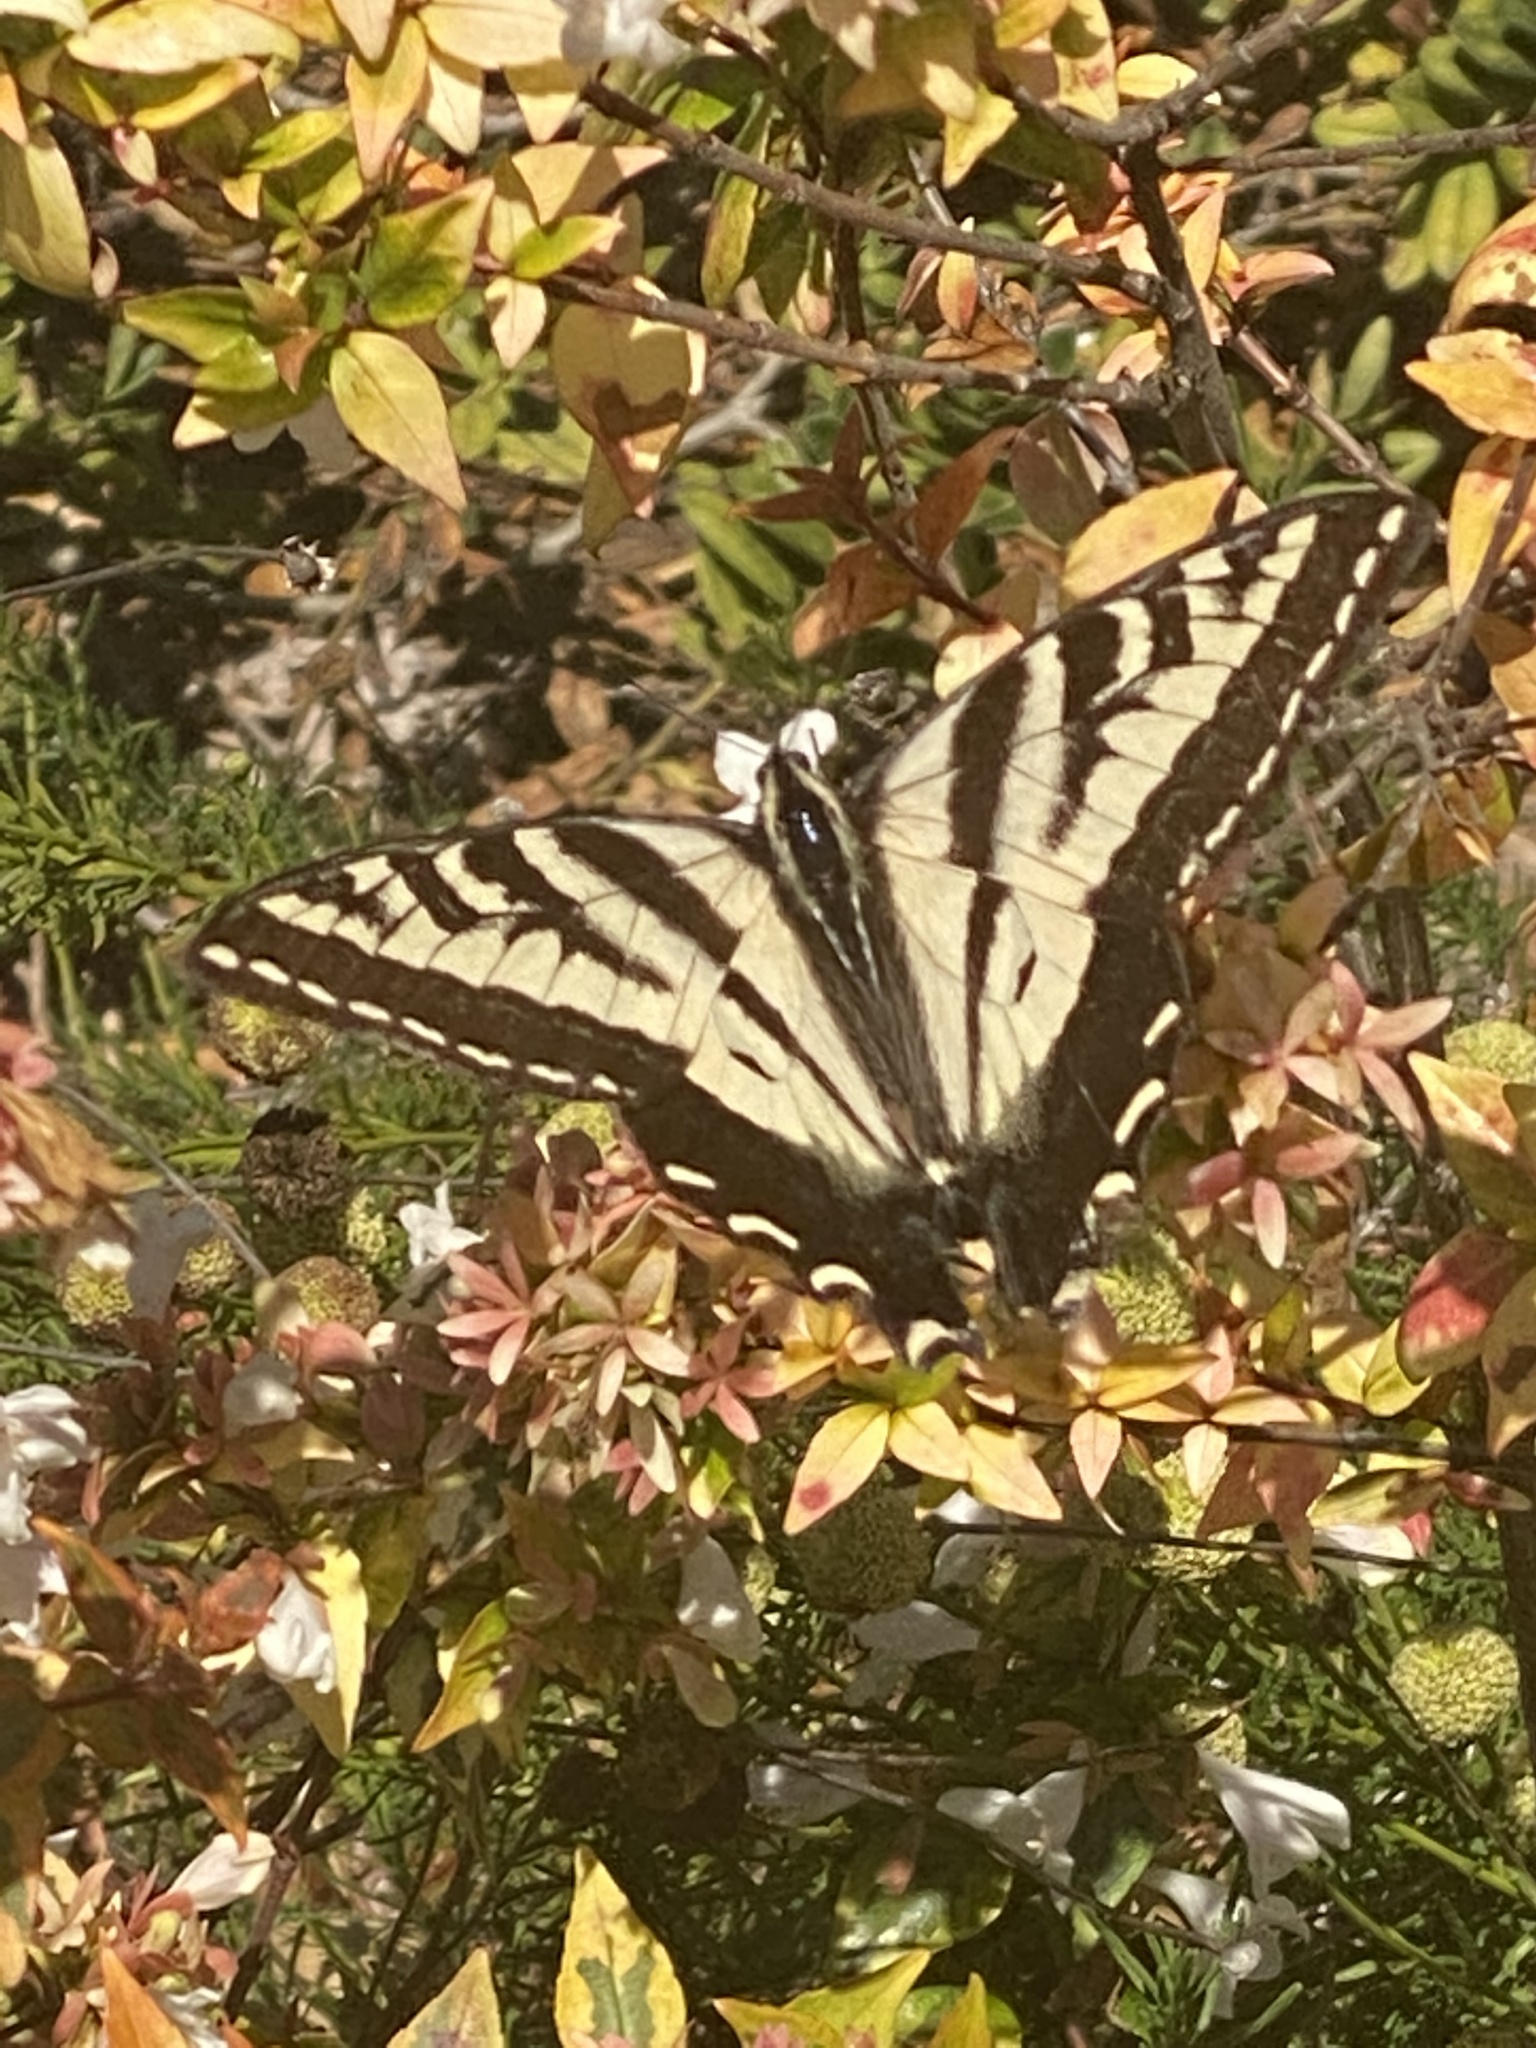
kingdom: Animalia
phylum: Arthropoda
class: Insecta
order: Lepidoptera
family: Papilionidae
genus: Papilio
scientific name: Papilio rutulus
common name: Western tiger swallowtail
